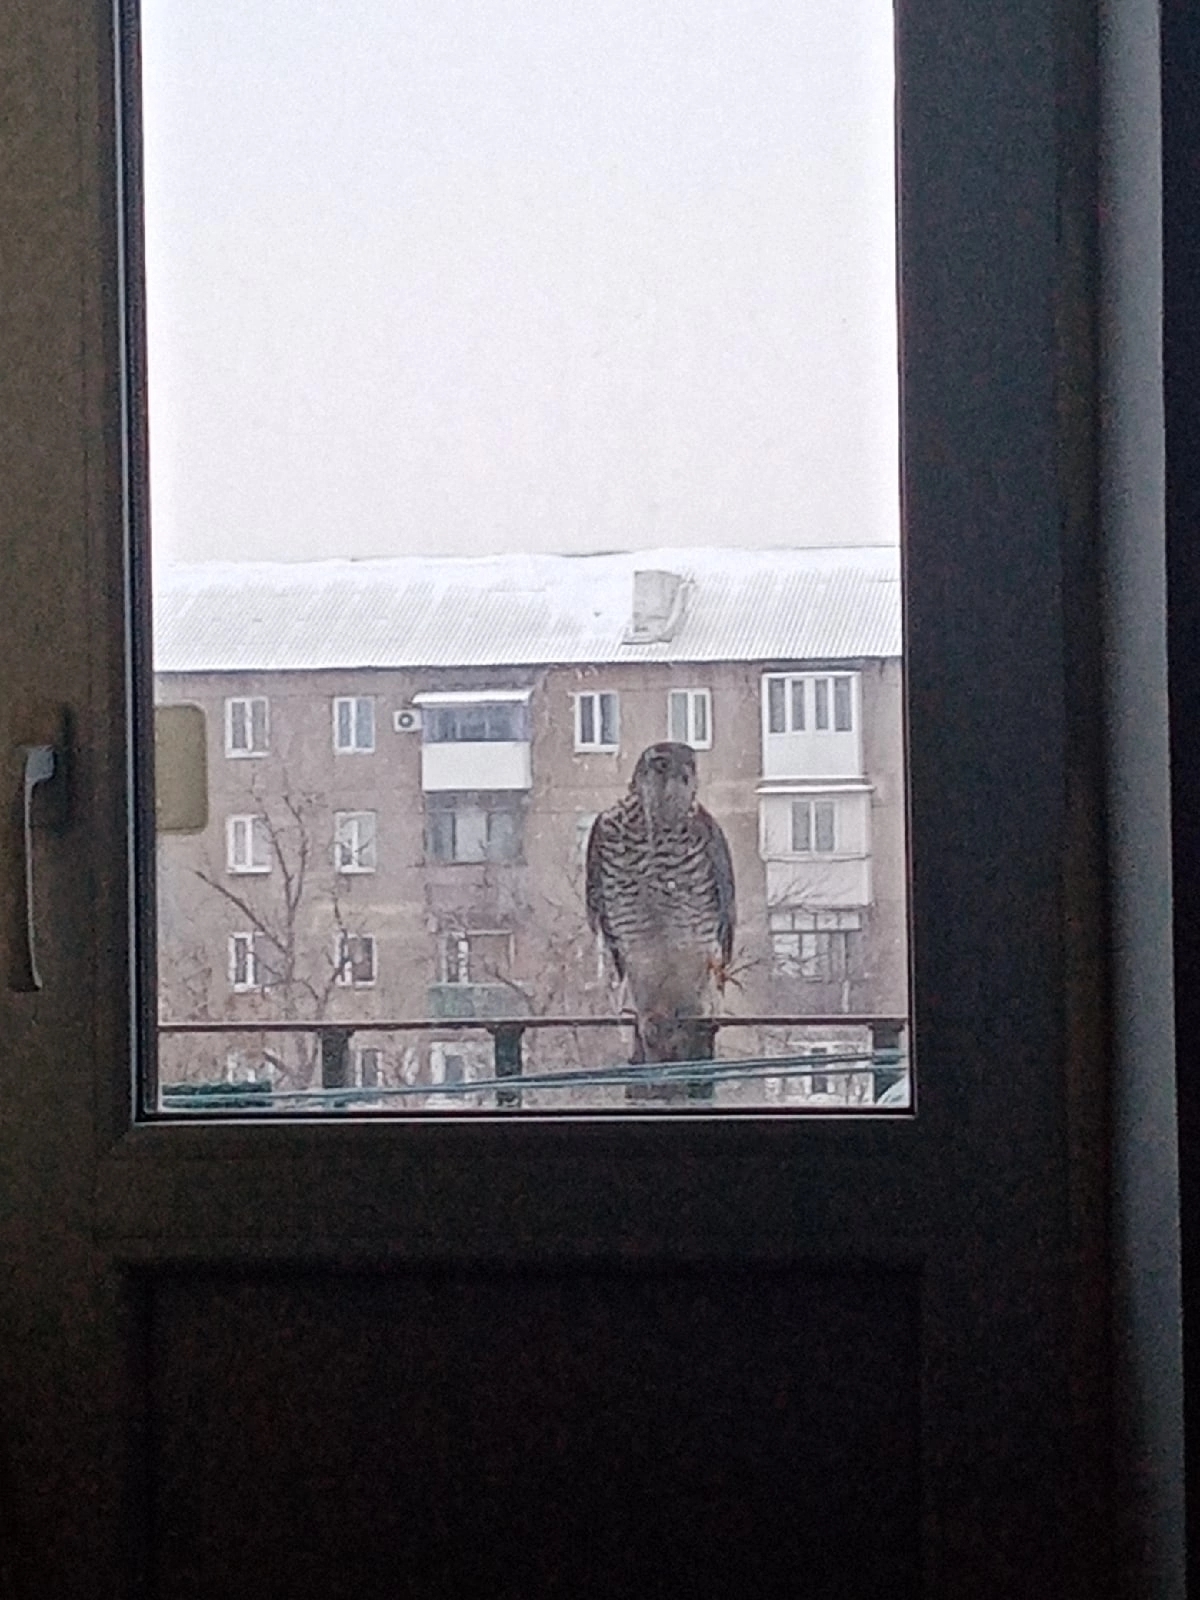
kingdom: Animalia
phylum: Chordata
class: Aves
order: Accipitriformes
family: Accipitridae
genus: Accipiter
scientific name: Accipiter nisus
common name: Eurasian sparrowhawk
